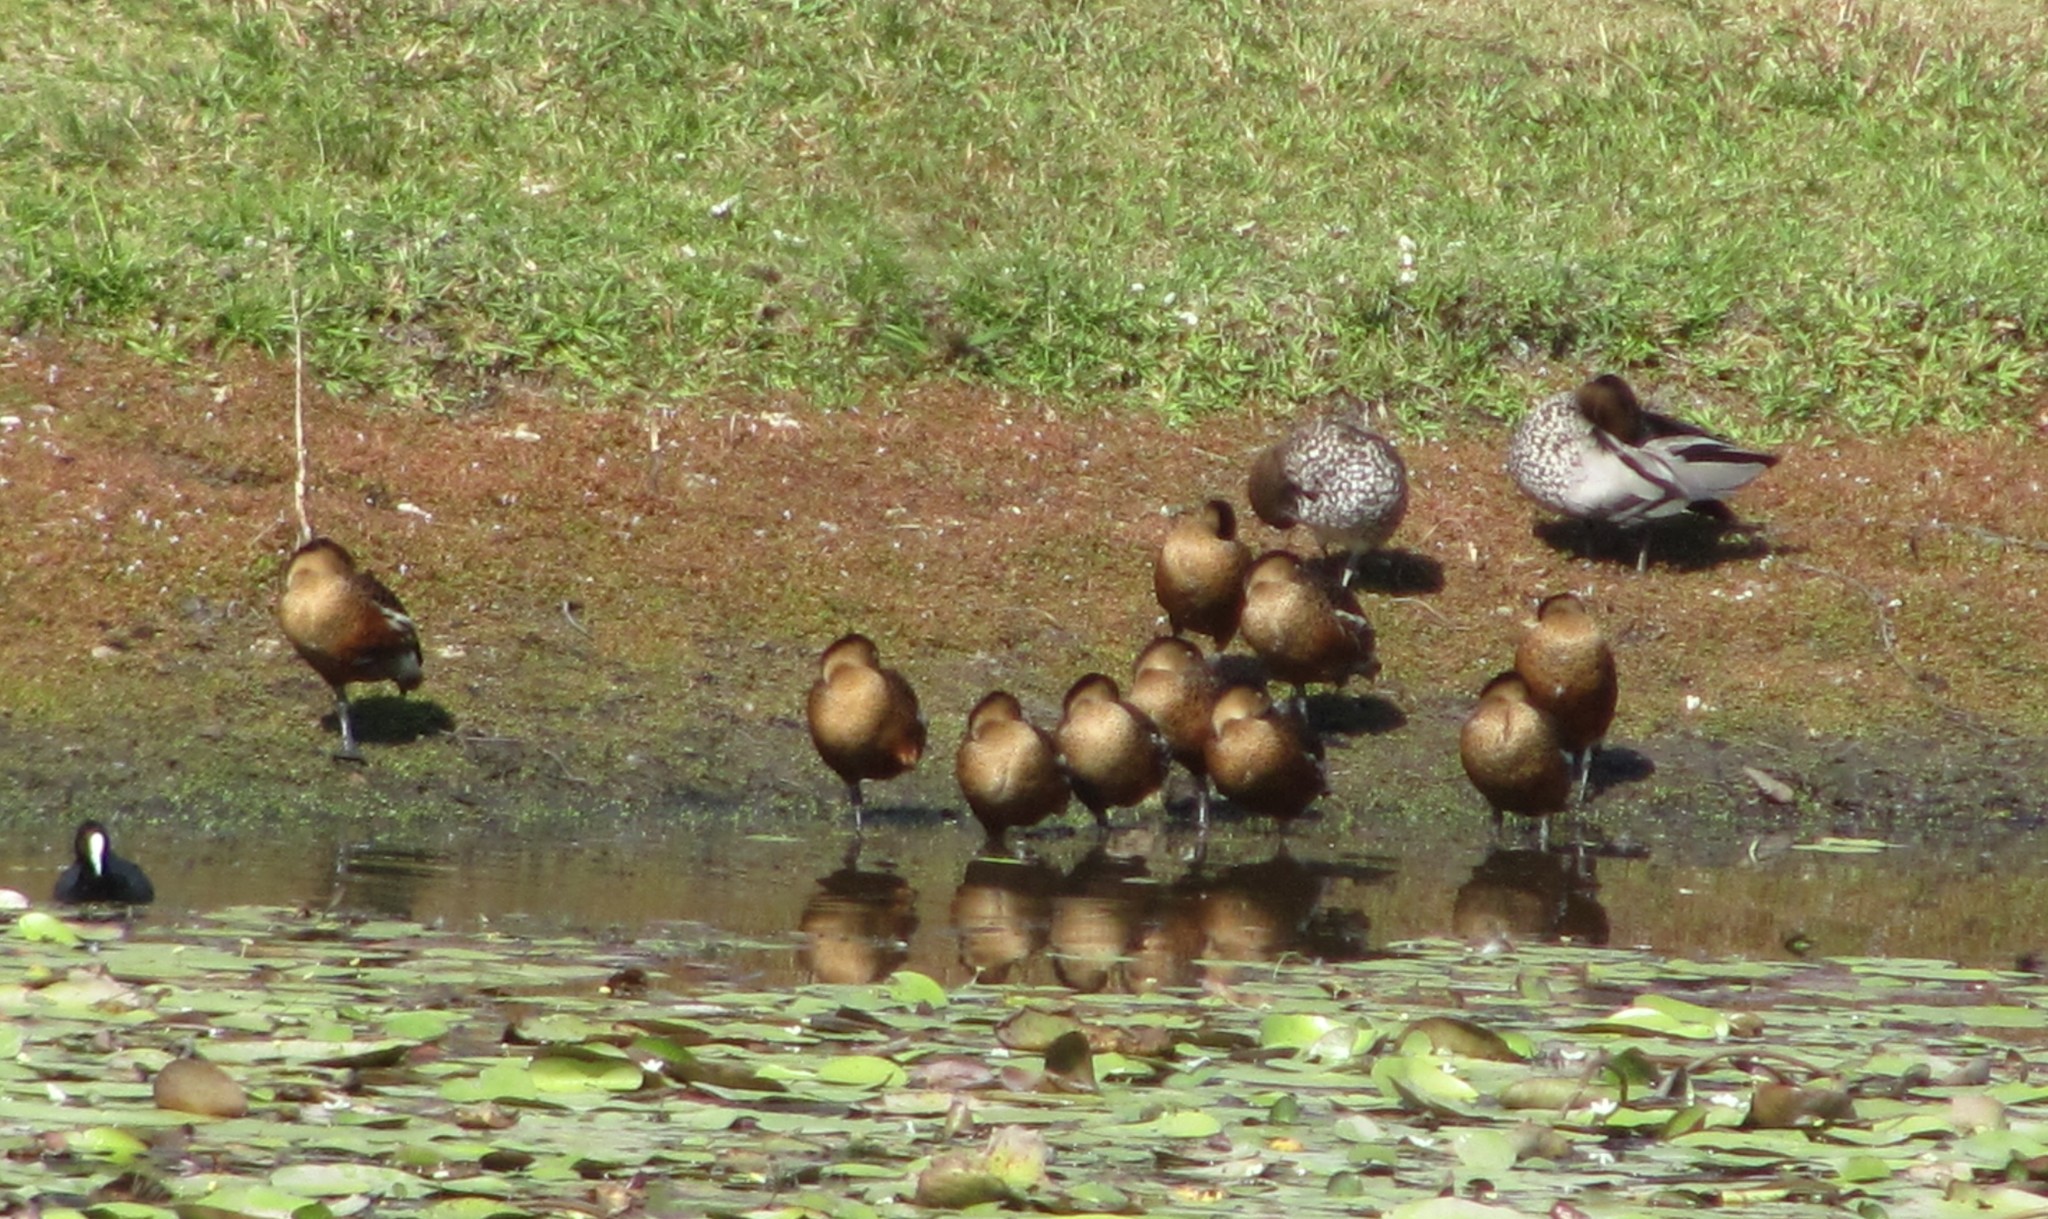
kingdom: Animalia
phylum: Chordata
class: Aves
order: Anseriformes
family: Anatidae
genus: Dendrocygna
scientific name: Dendrocygna arcuata
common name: Wandering whistling-duck
